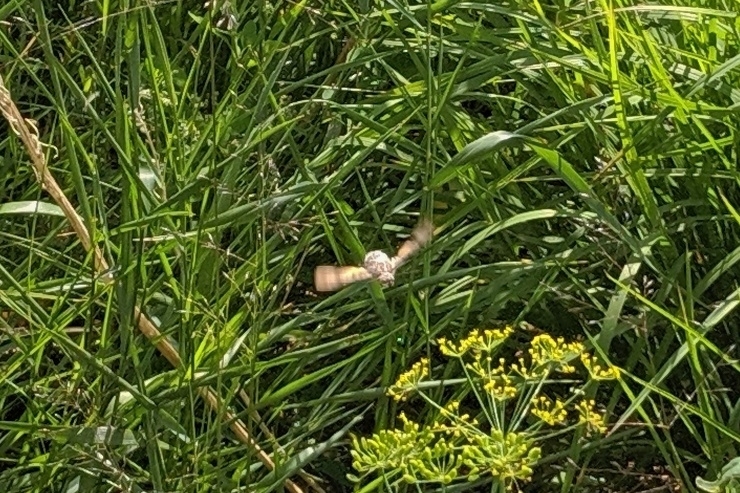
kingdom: Animalia
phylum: Arthropoda
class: Insecta
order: Lepidoptera
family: Sphingidae
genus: Macroglossum
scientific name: Macroglossum stellatarum
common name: Humming-bird hawk-moth
